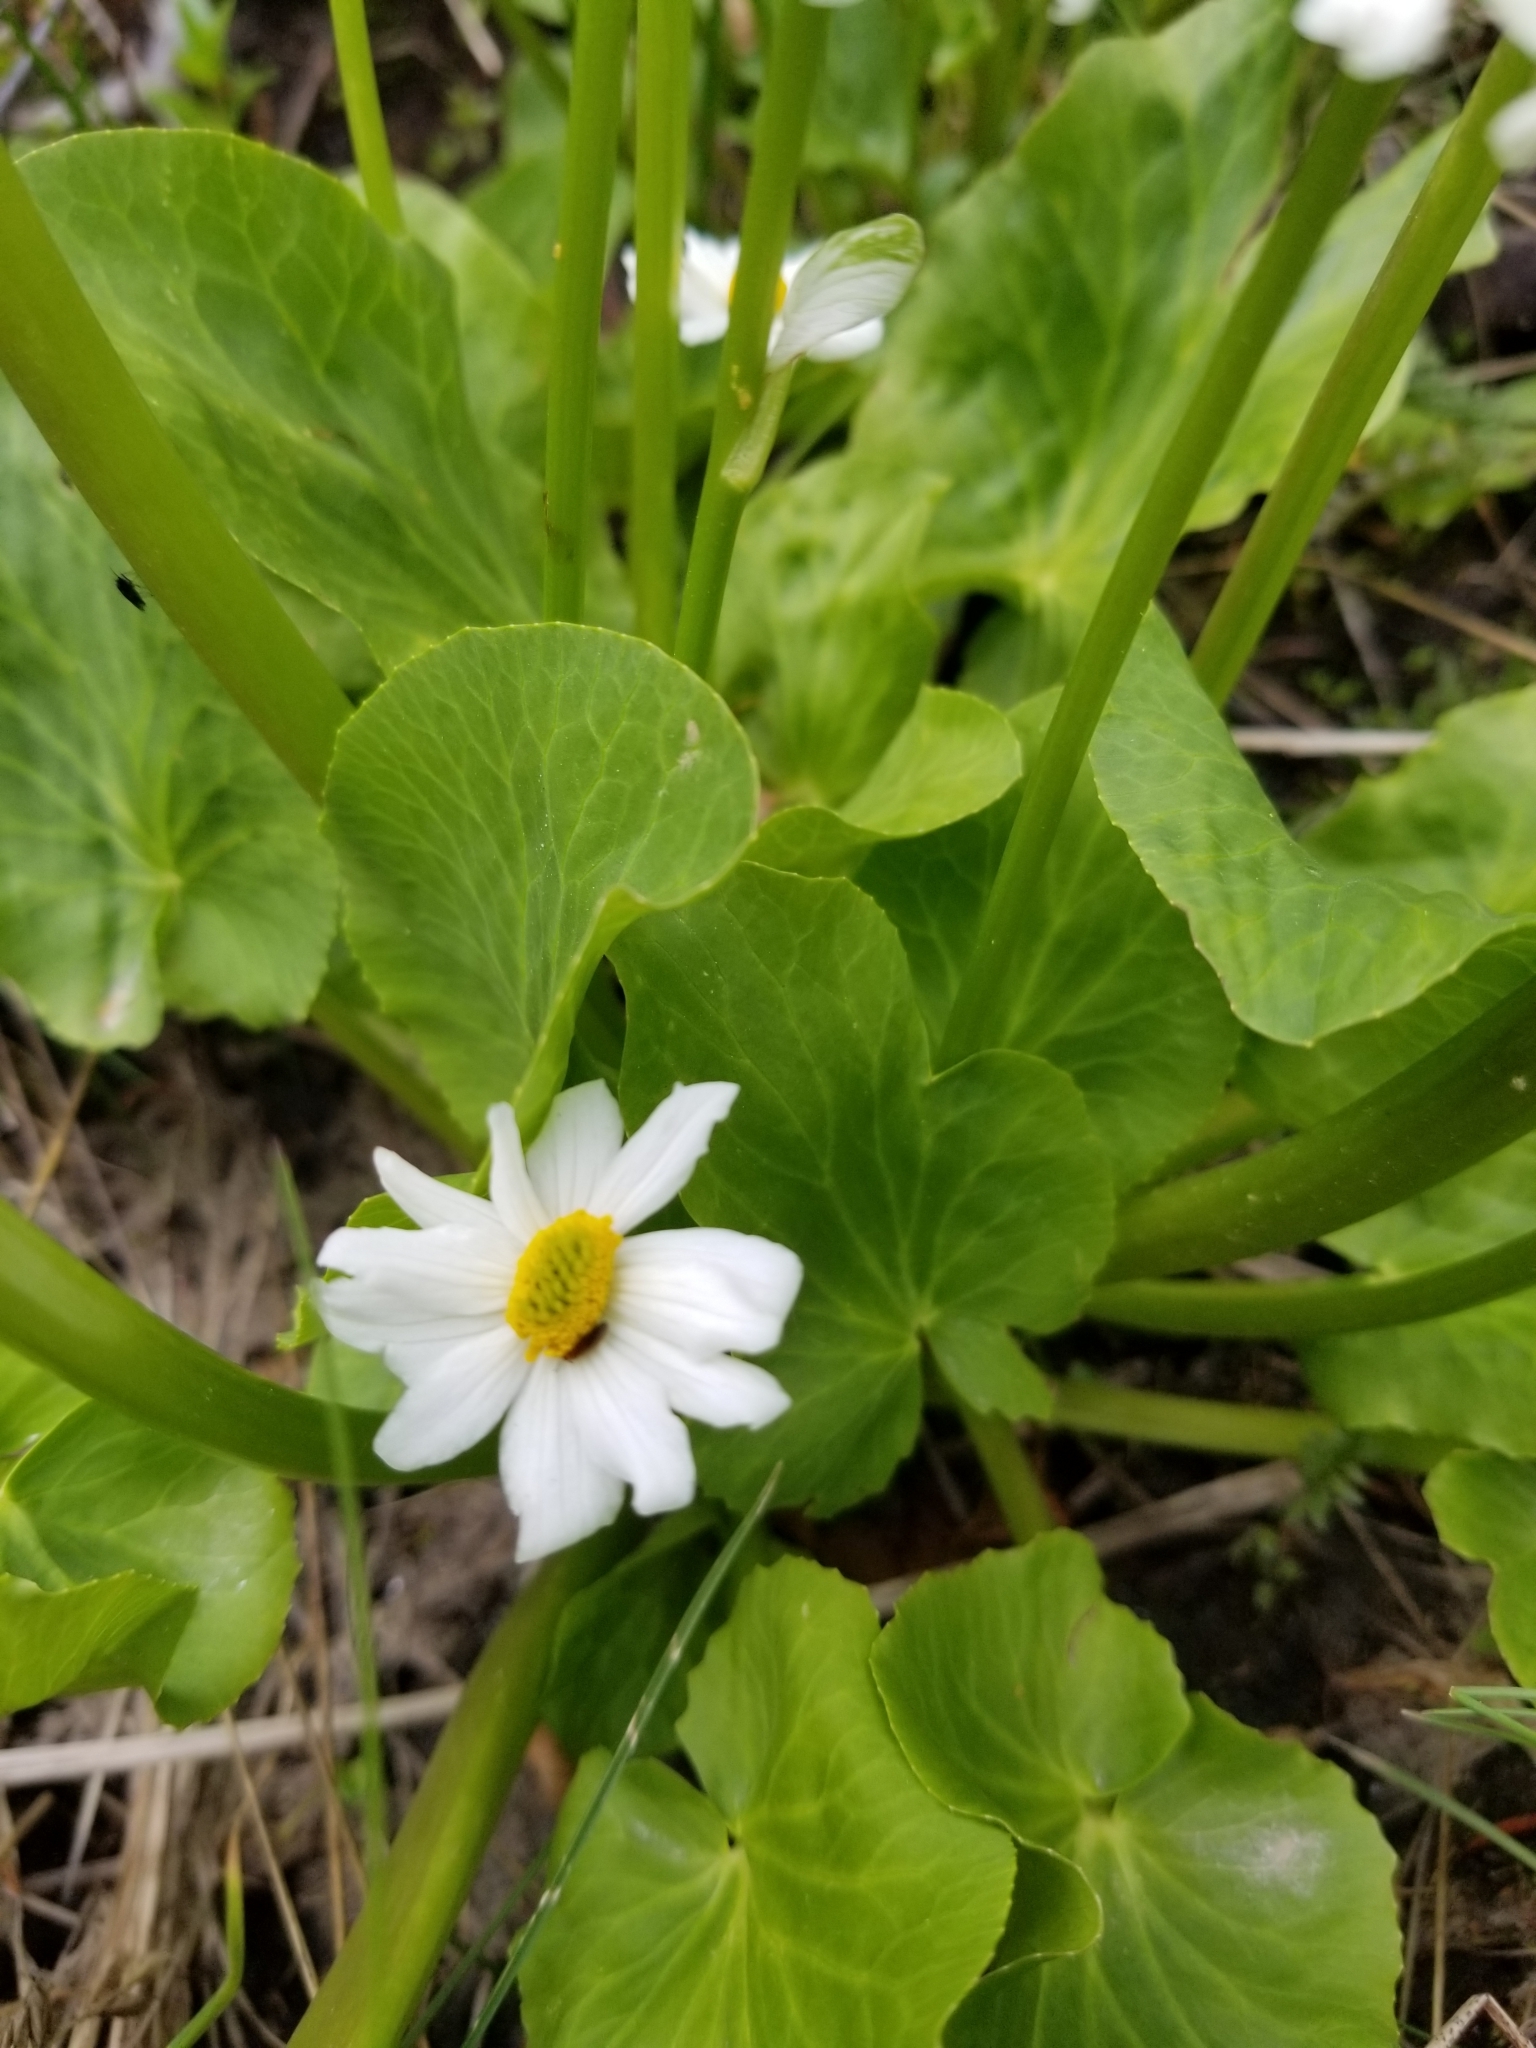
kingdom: Plantae
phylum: Tracheophyta
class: Magnoliopsida
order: Ranunculales
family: Ranunculaceae
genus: Caltha
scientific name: Caltha leptosepala
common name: Elkslip
